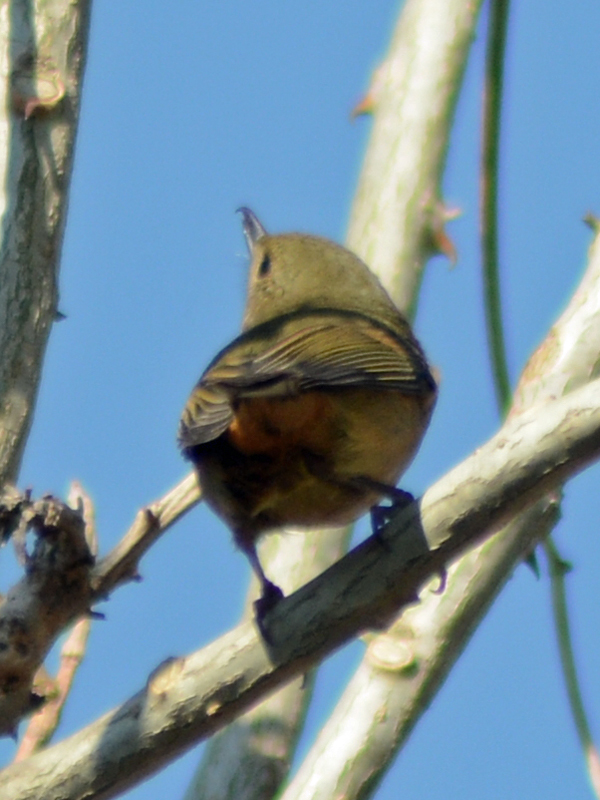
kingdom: Animalia
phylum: Chordata
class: Aves
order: Passeriformes
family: Thraupidae
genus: Diglossa
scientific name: Diglossa baritula
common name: Cinnamon-bellied flowerpiercer
